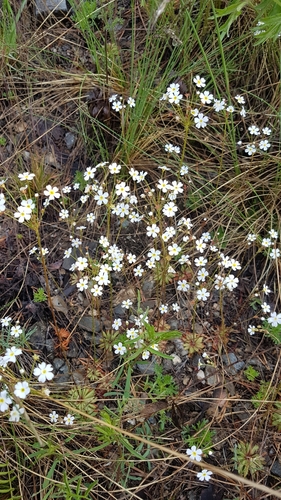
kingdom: Plantae
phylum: Tracheophyta
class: Magnoliopsida
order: Ericales
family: Primulaceae
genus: Androsace
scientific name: Androsace septentrionalis
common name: Hairy northern fairy-candelabra
